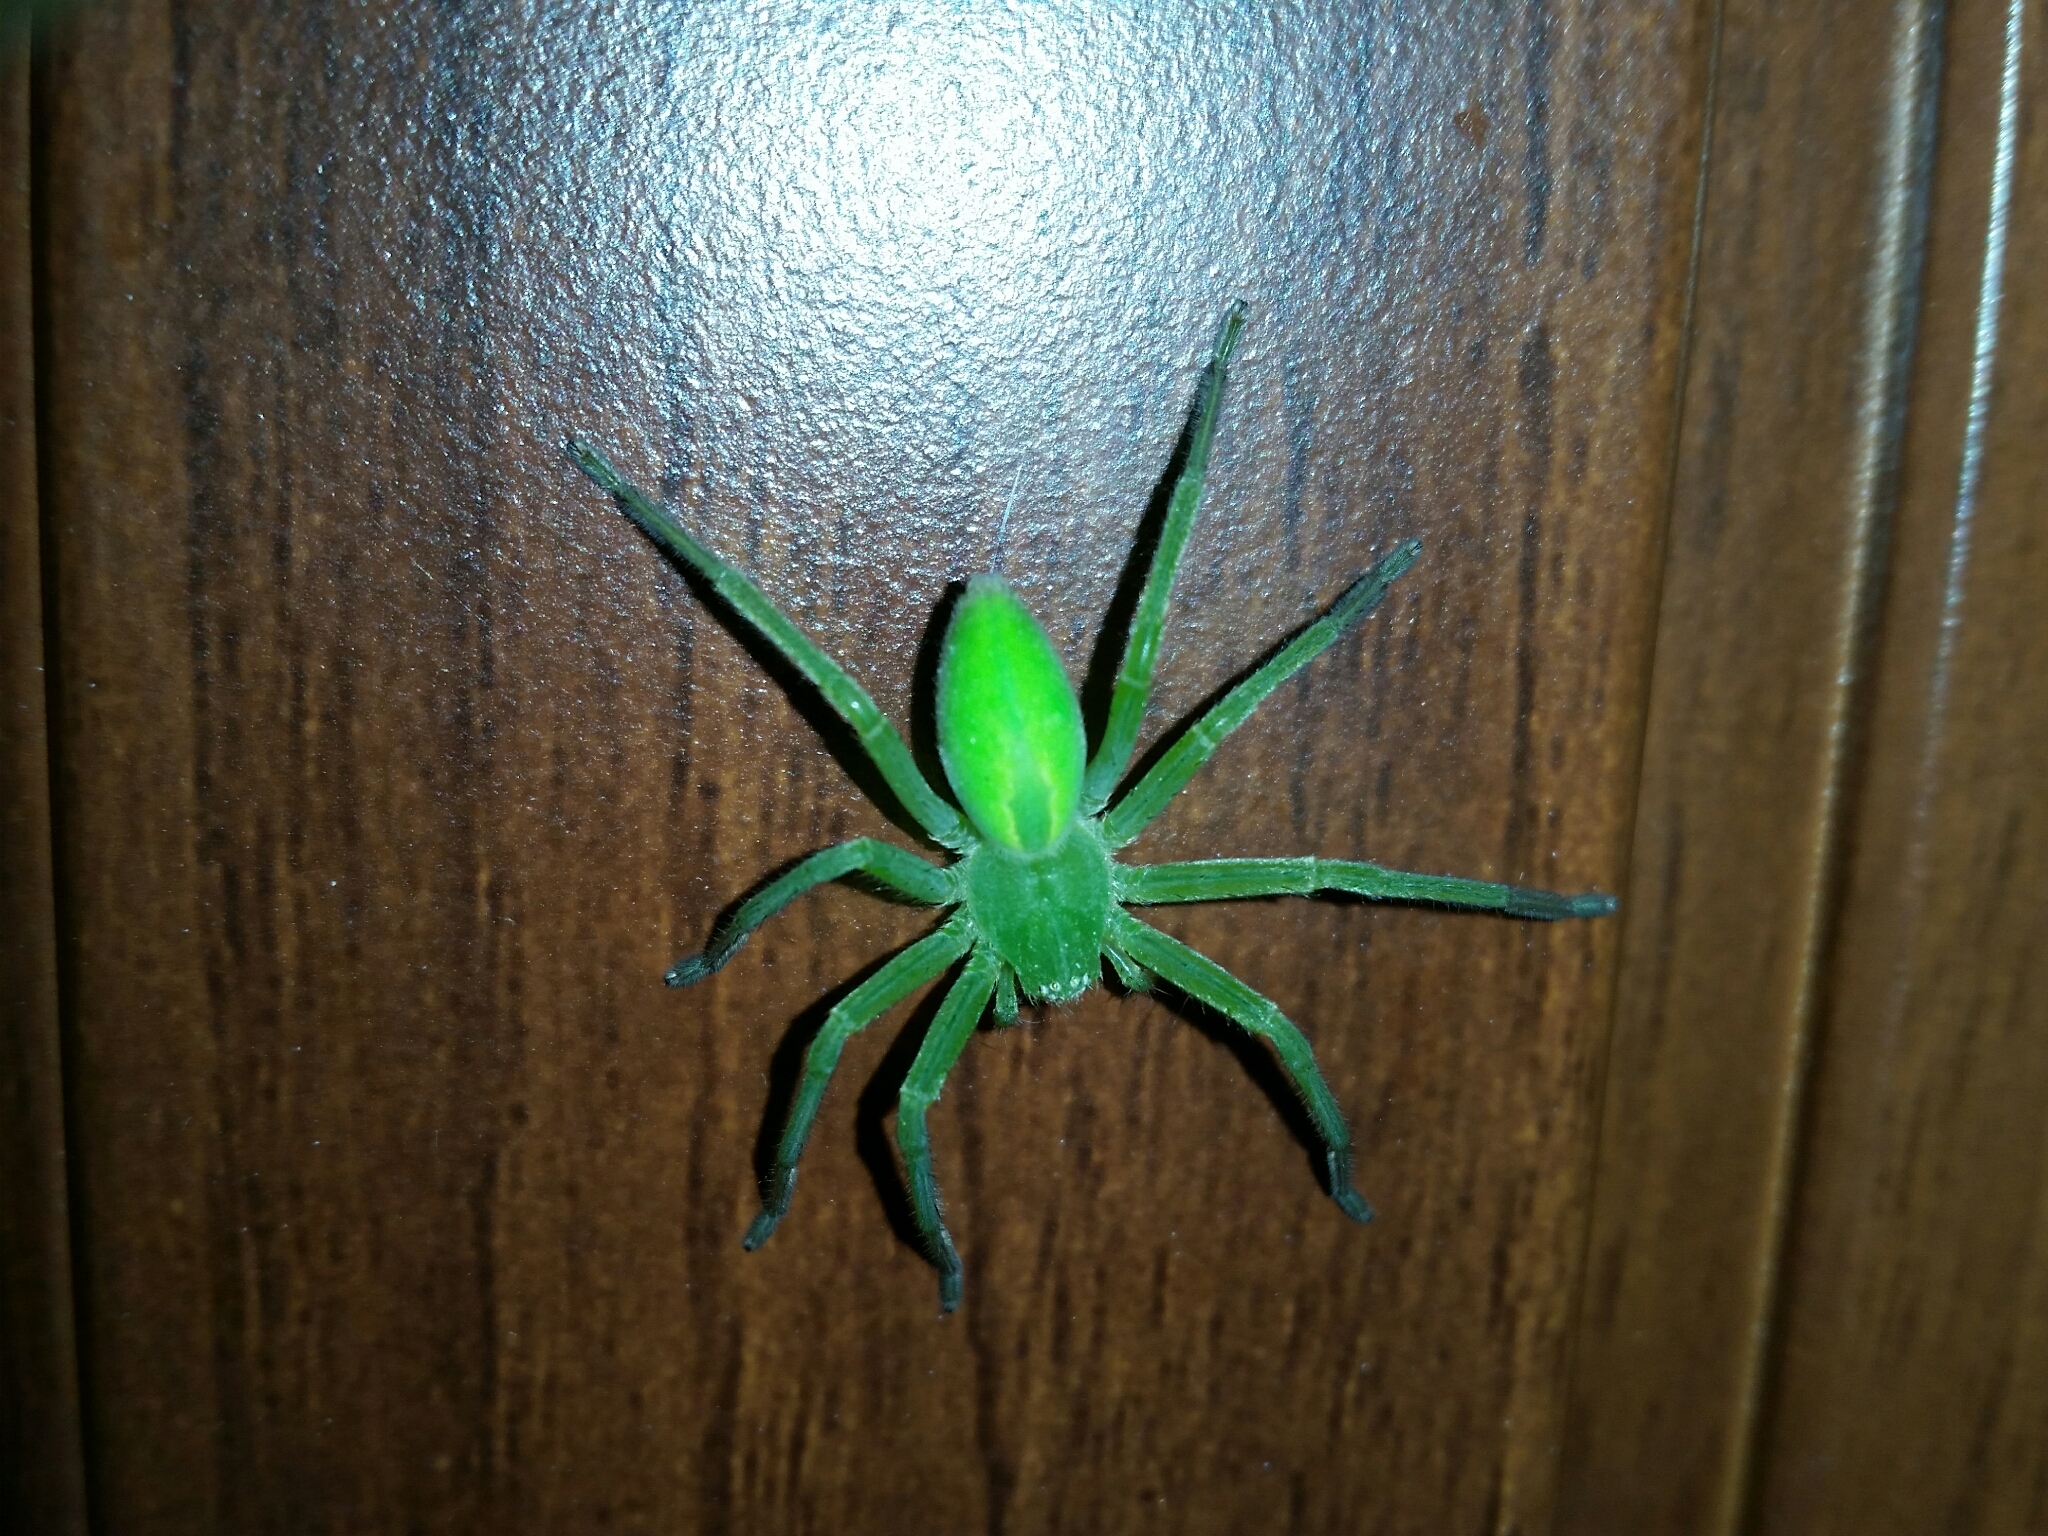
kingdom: Animalia
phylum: Arthropoda
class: Arachnida
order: Araneae
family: Sparassidae
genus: Micrommata
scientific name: Micrommata virescens
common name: Green spider
